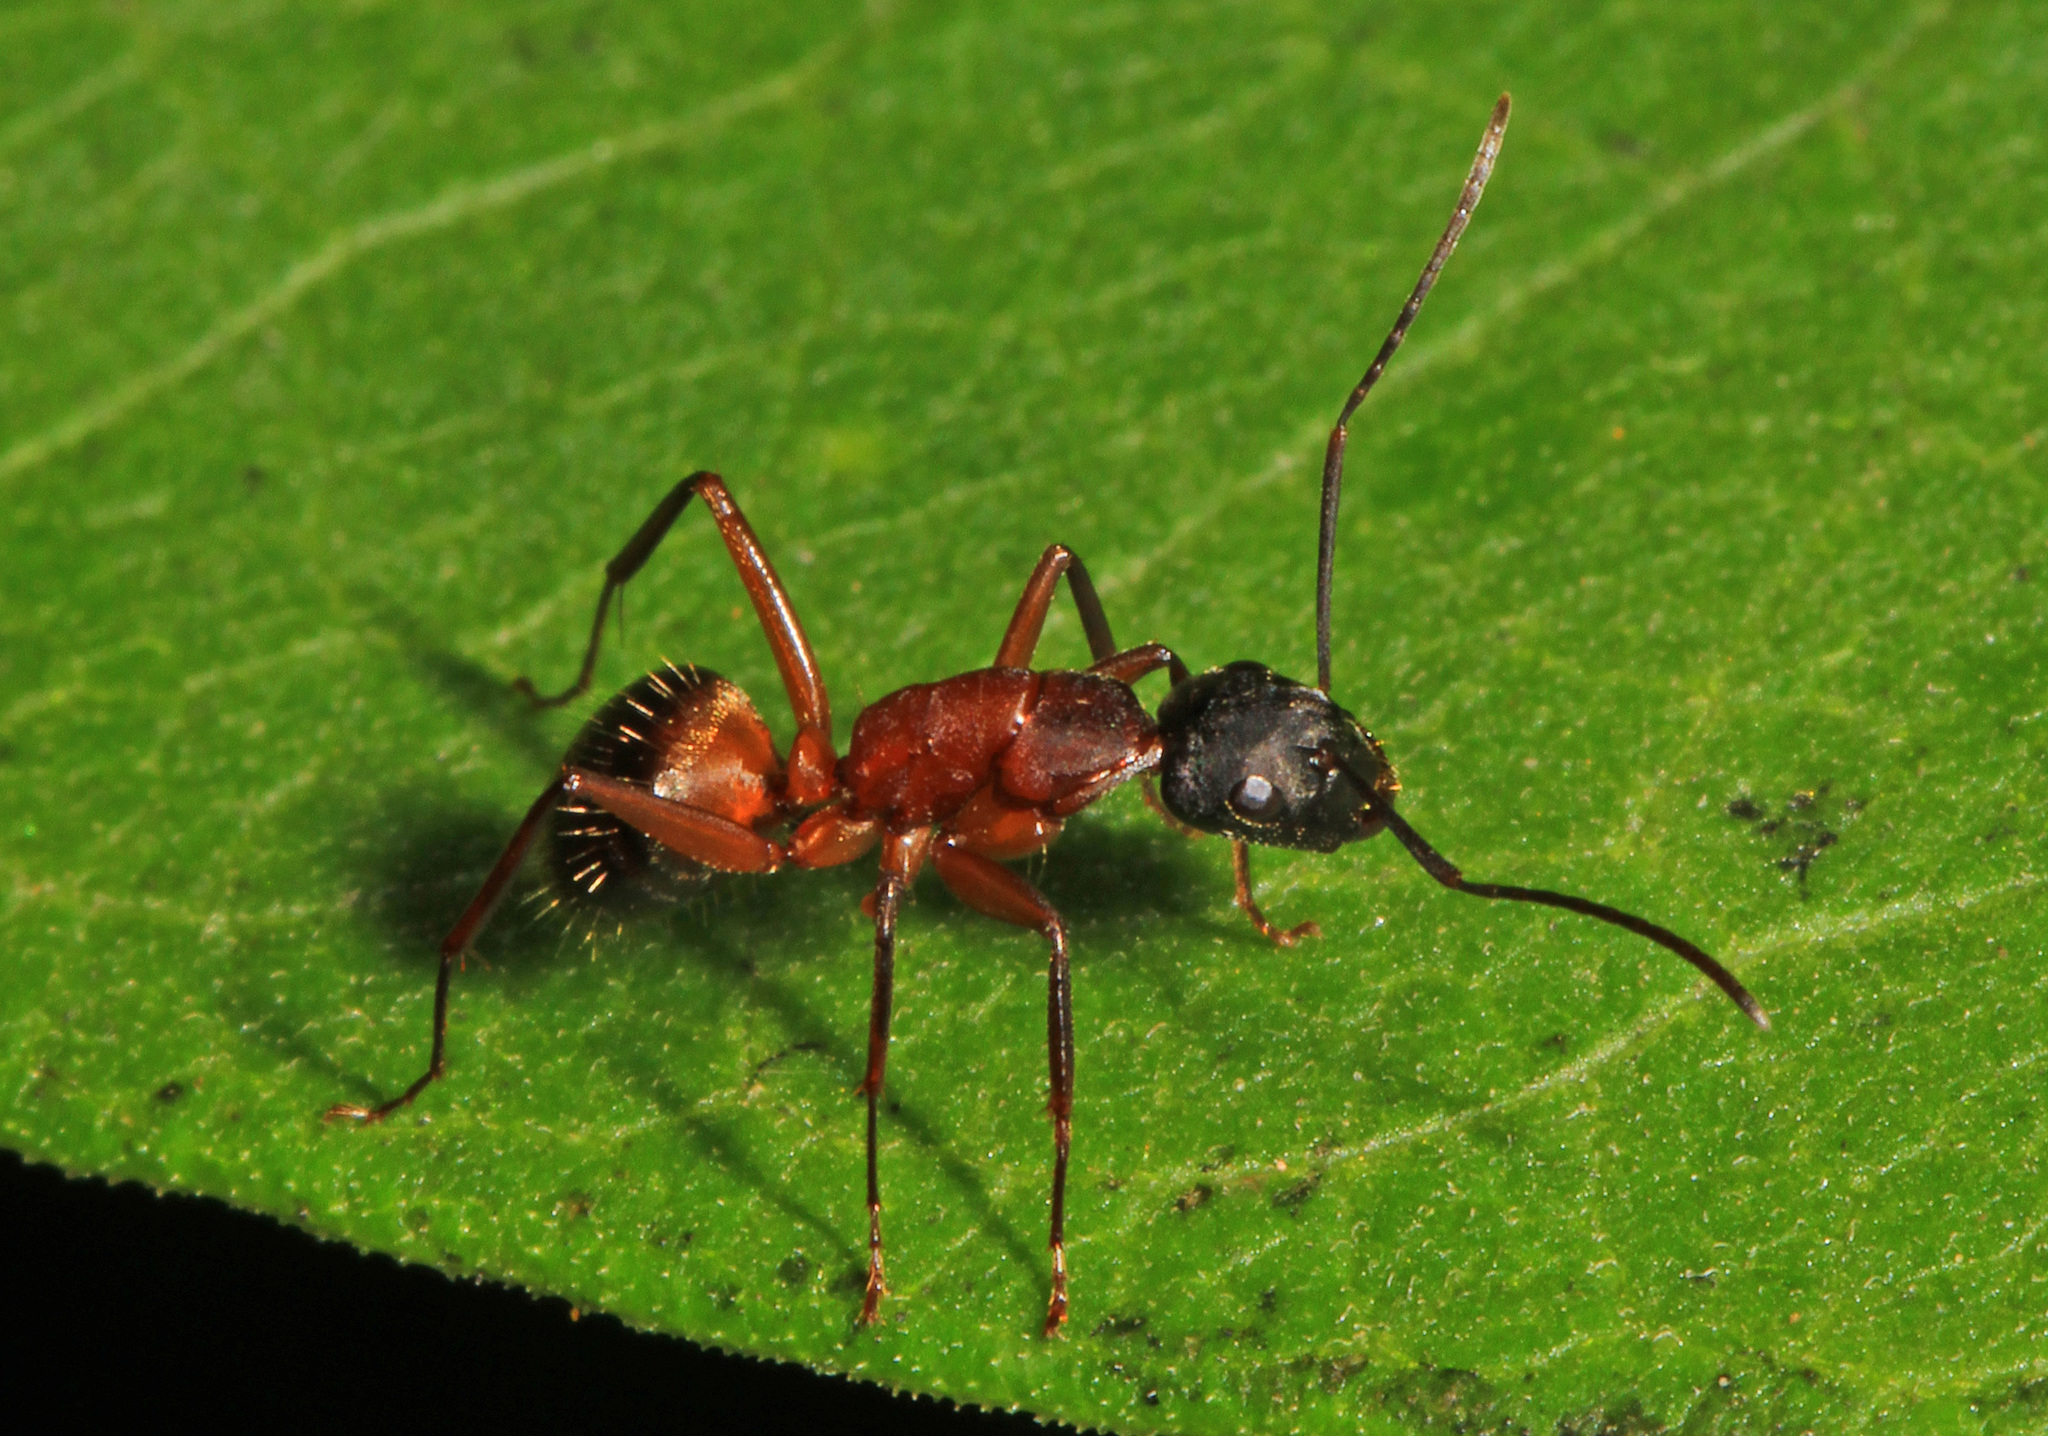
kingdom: Animalia
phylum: Arthropoda
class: Insecta
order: Hymenoptera
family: Formicidae
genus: Camponotus
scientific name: Camponotus chromaiodes
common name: Red carpenter ant
